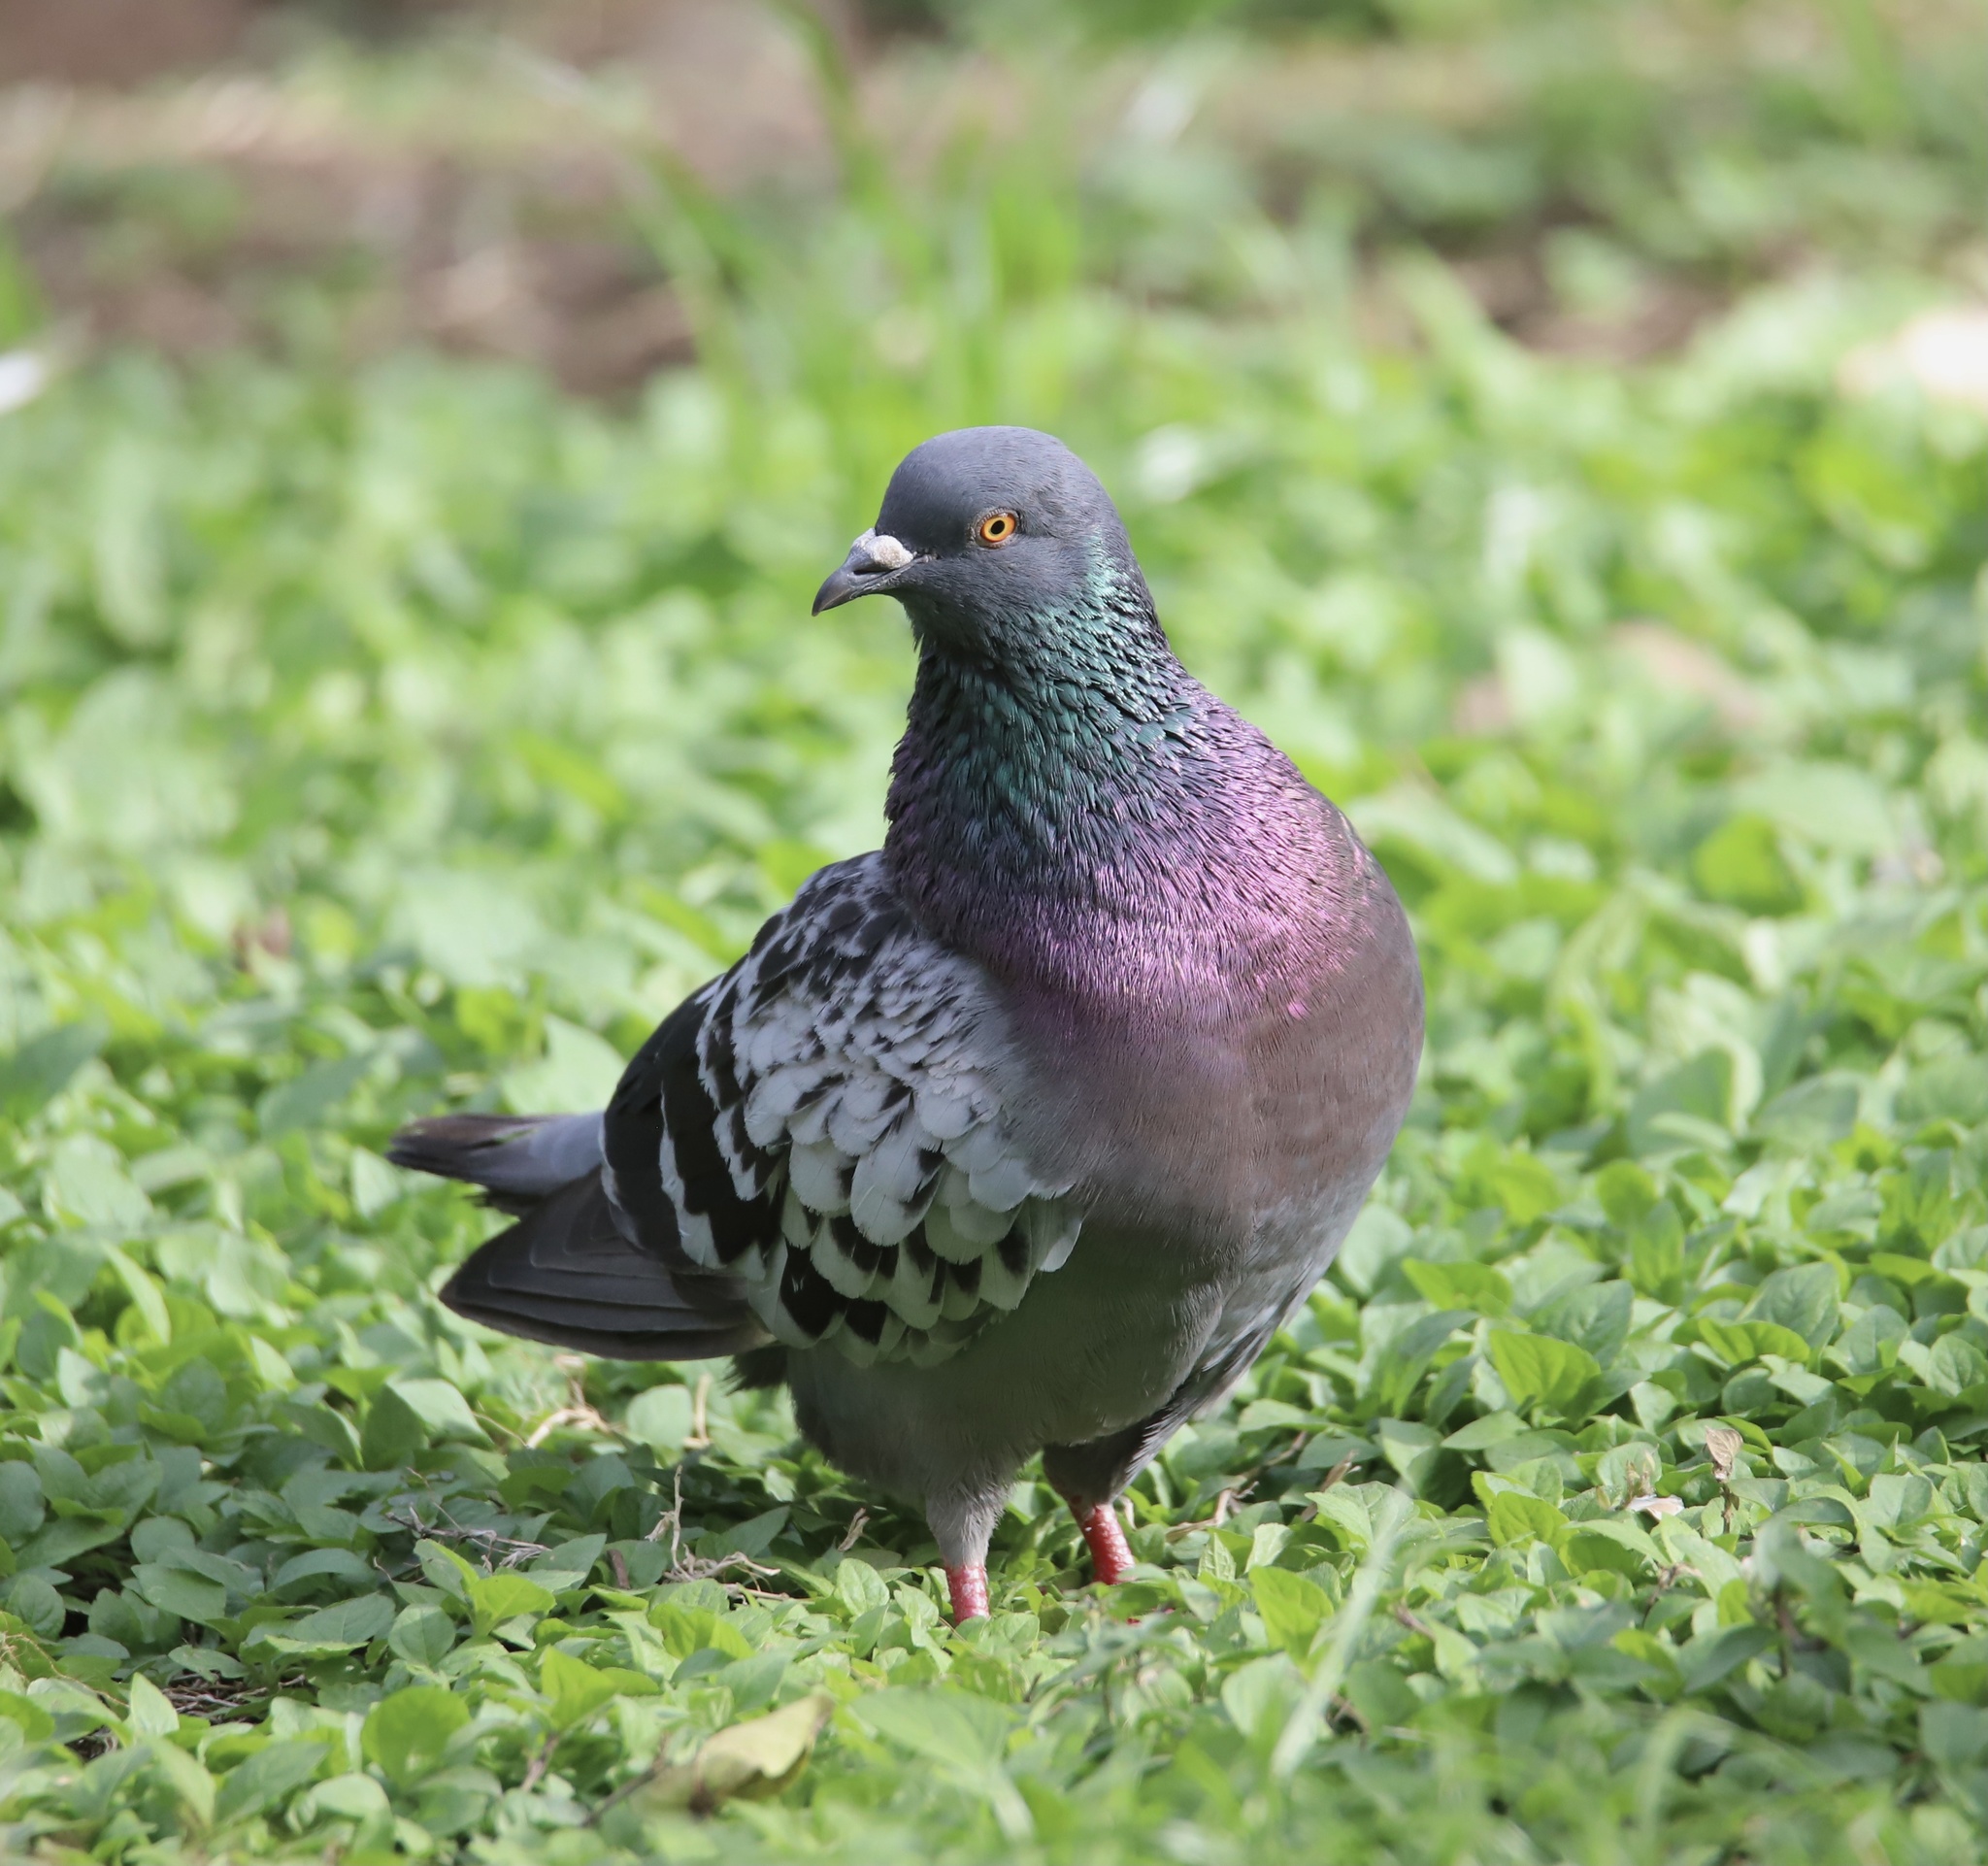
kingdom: Animalia
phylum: Chordata
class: Aves
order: Columbiformes
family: Columbidae
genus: Columba
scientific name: Columba livia
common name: Rock pigeon
